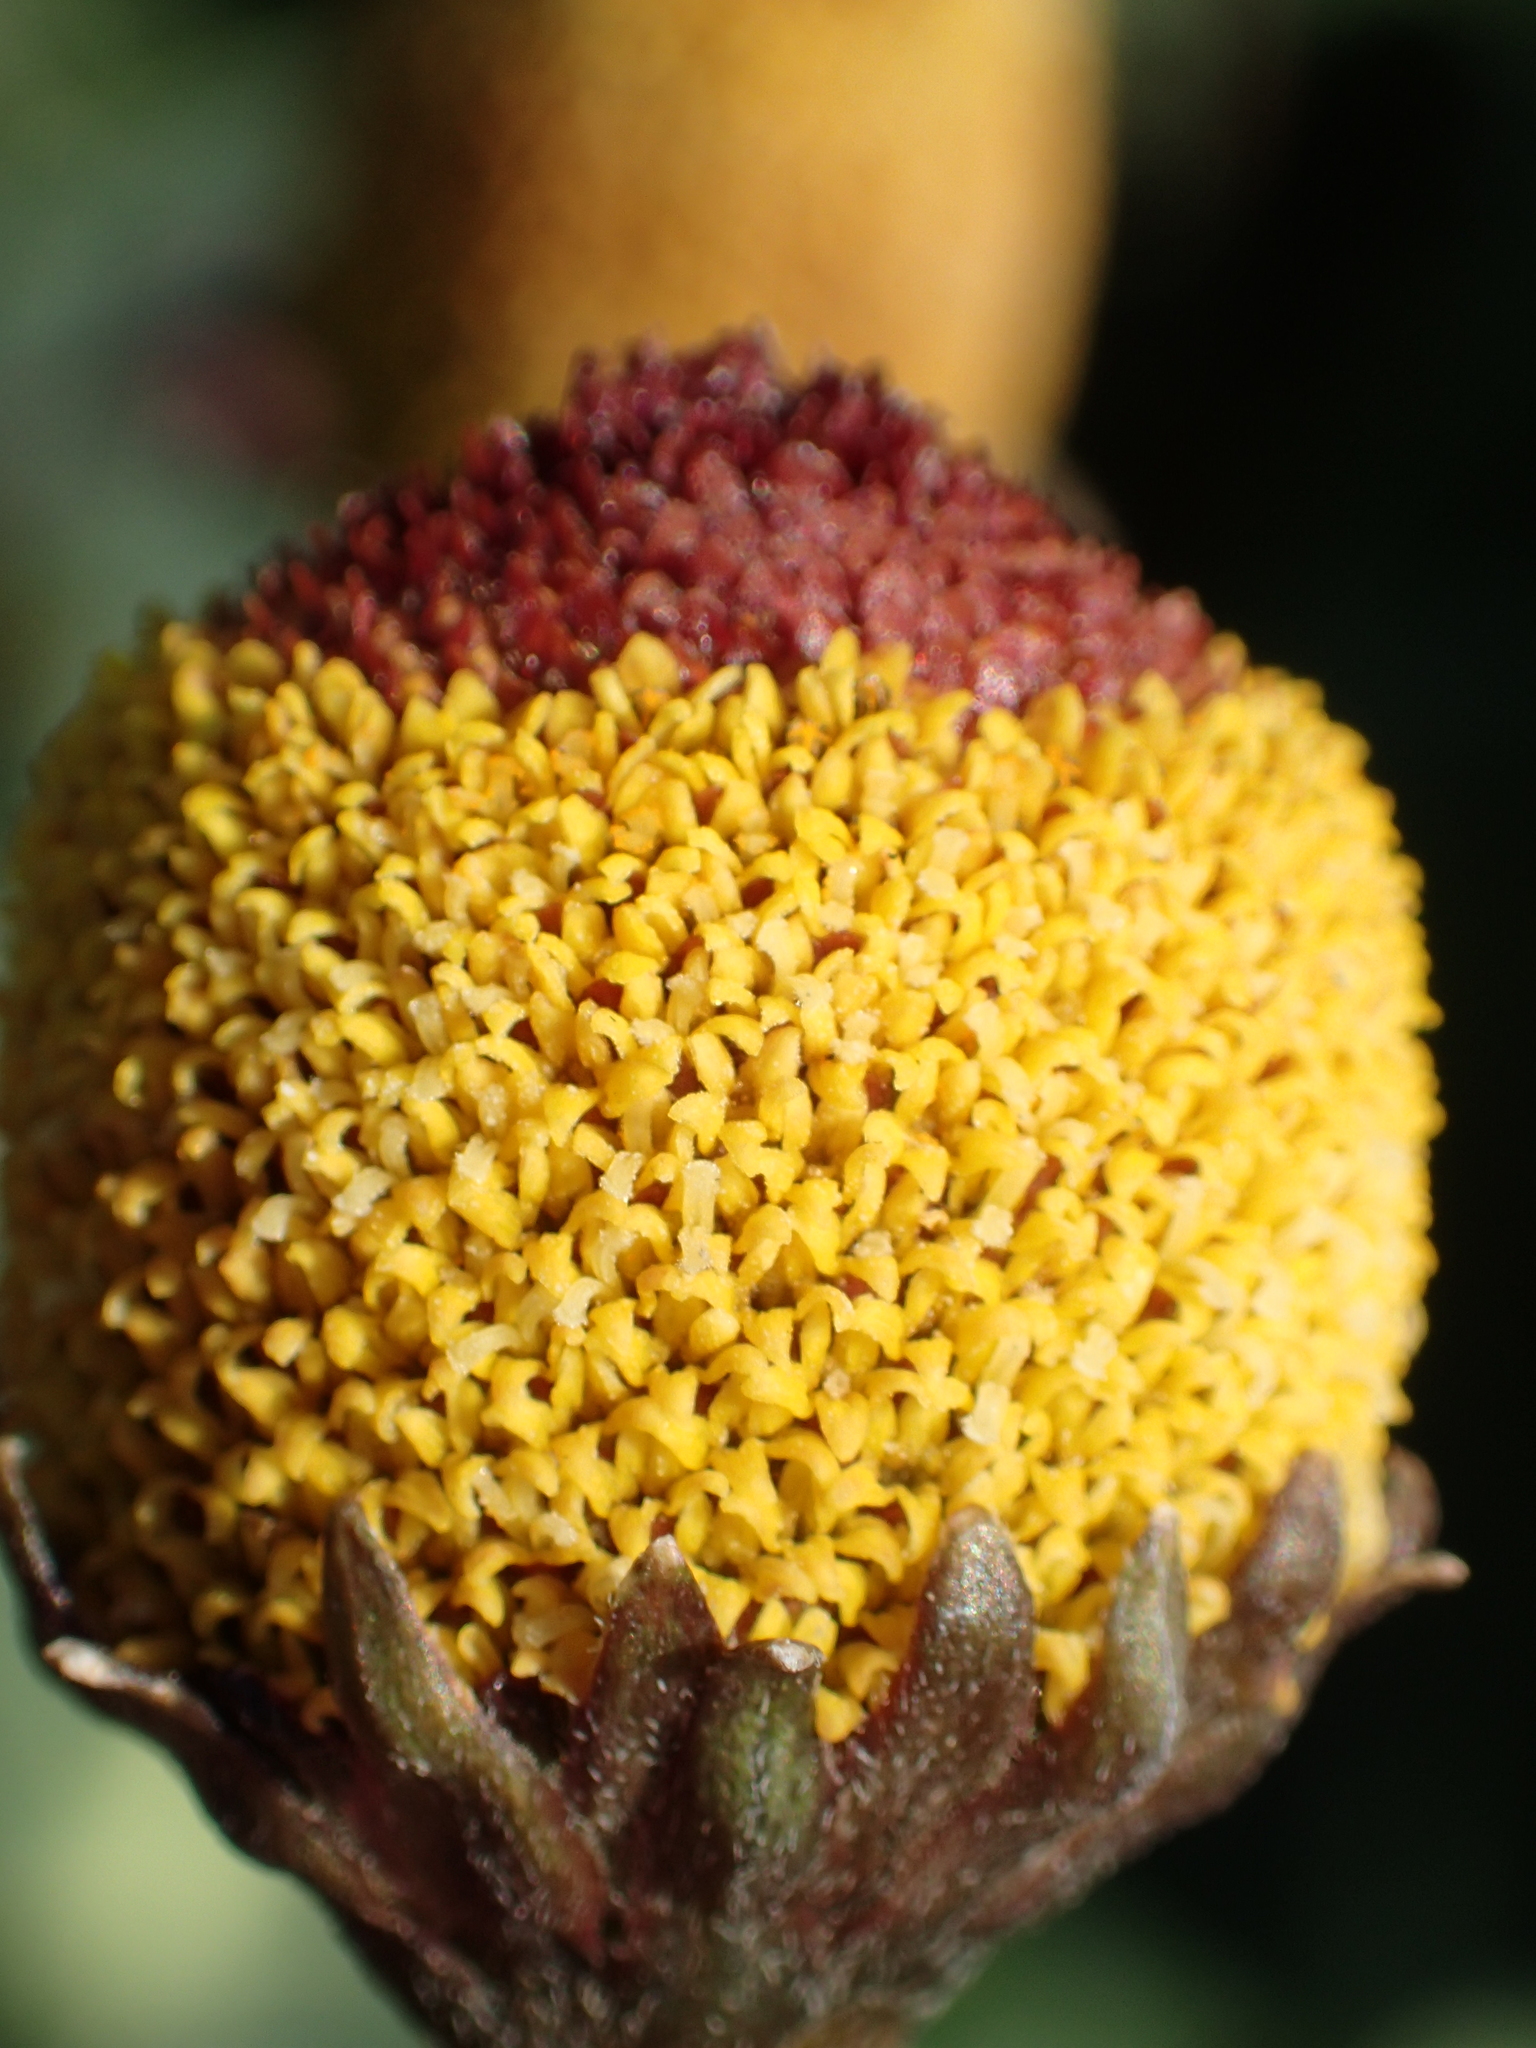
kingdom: Plantae
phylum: Tracheophyta
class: Magnoliopsida
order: Asterales
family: Asteraceae
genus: Acmella
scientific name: Acmella oleracea
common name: Brazilian cress
